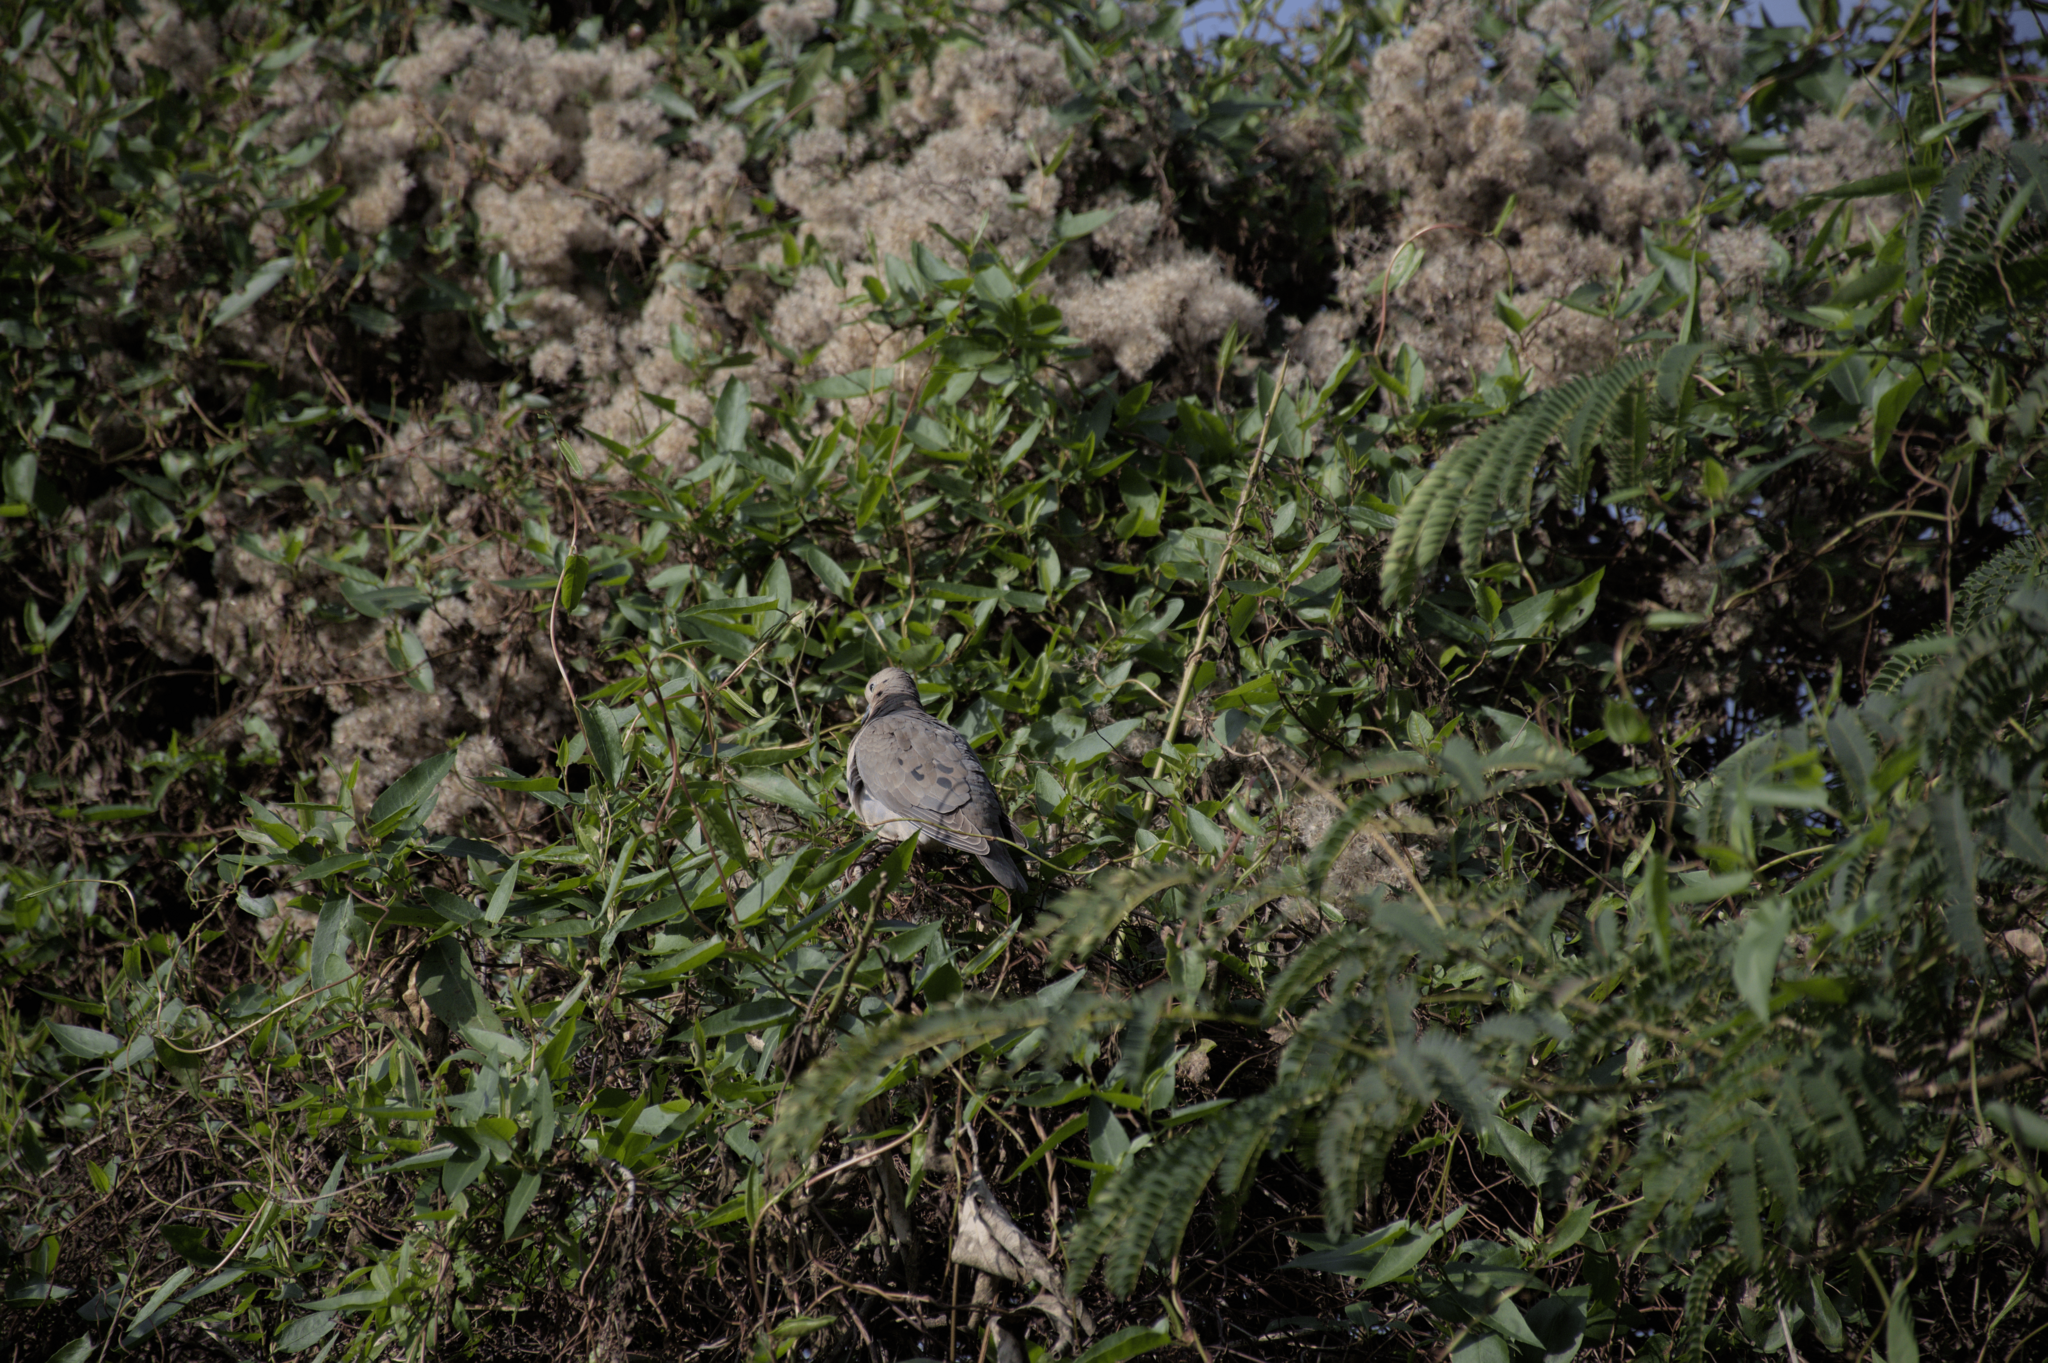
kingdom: Animalia
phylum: Chordata
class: Aves
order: Columbiformes
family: Columbidae
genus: Zenaida
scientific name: Zenaida auriculata
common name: Eared dove
